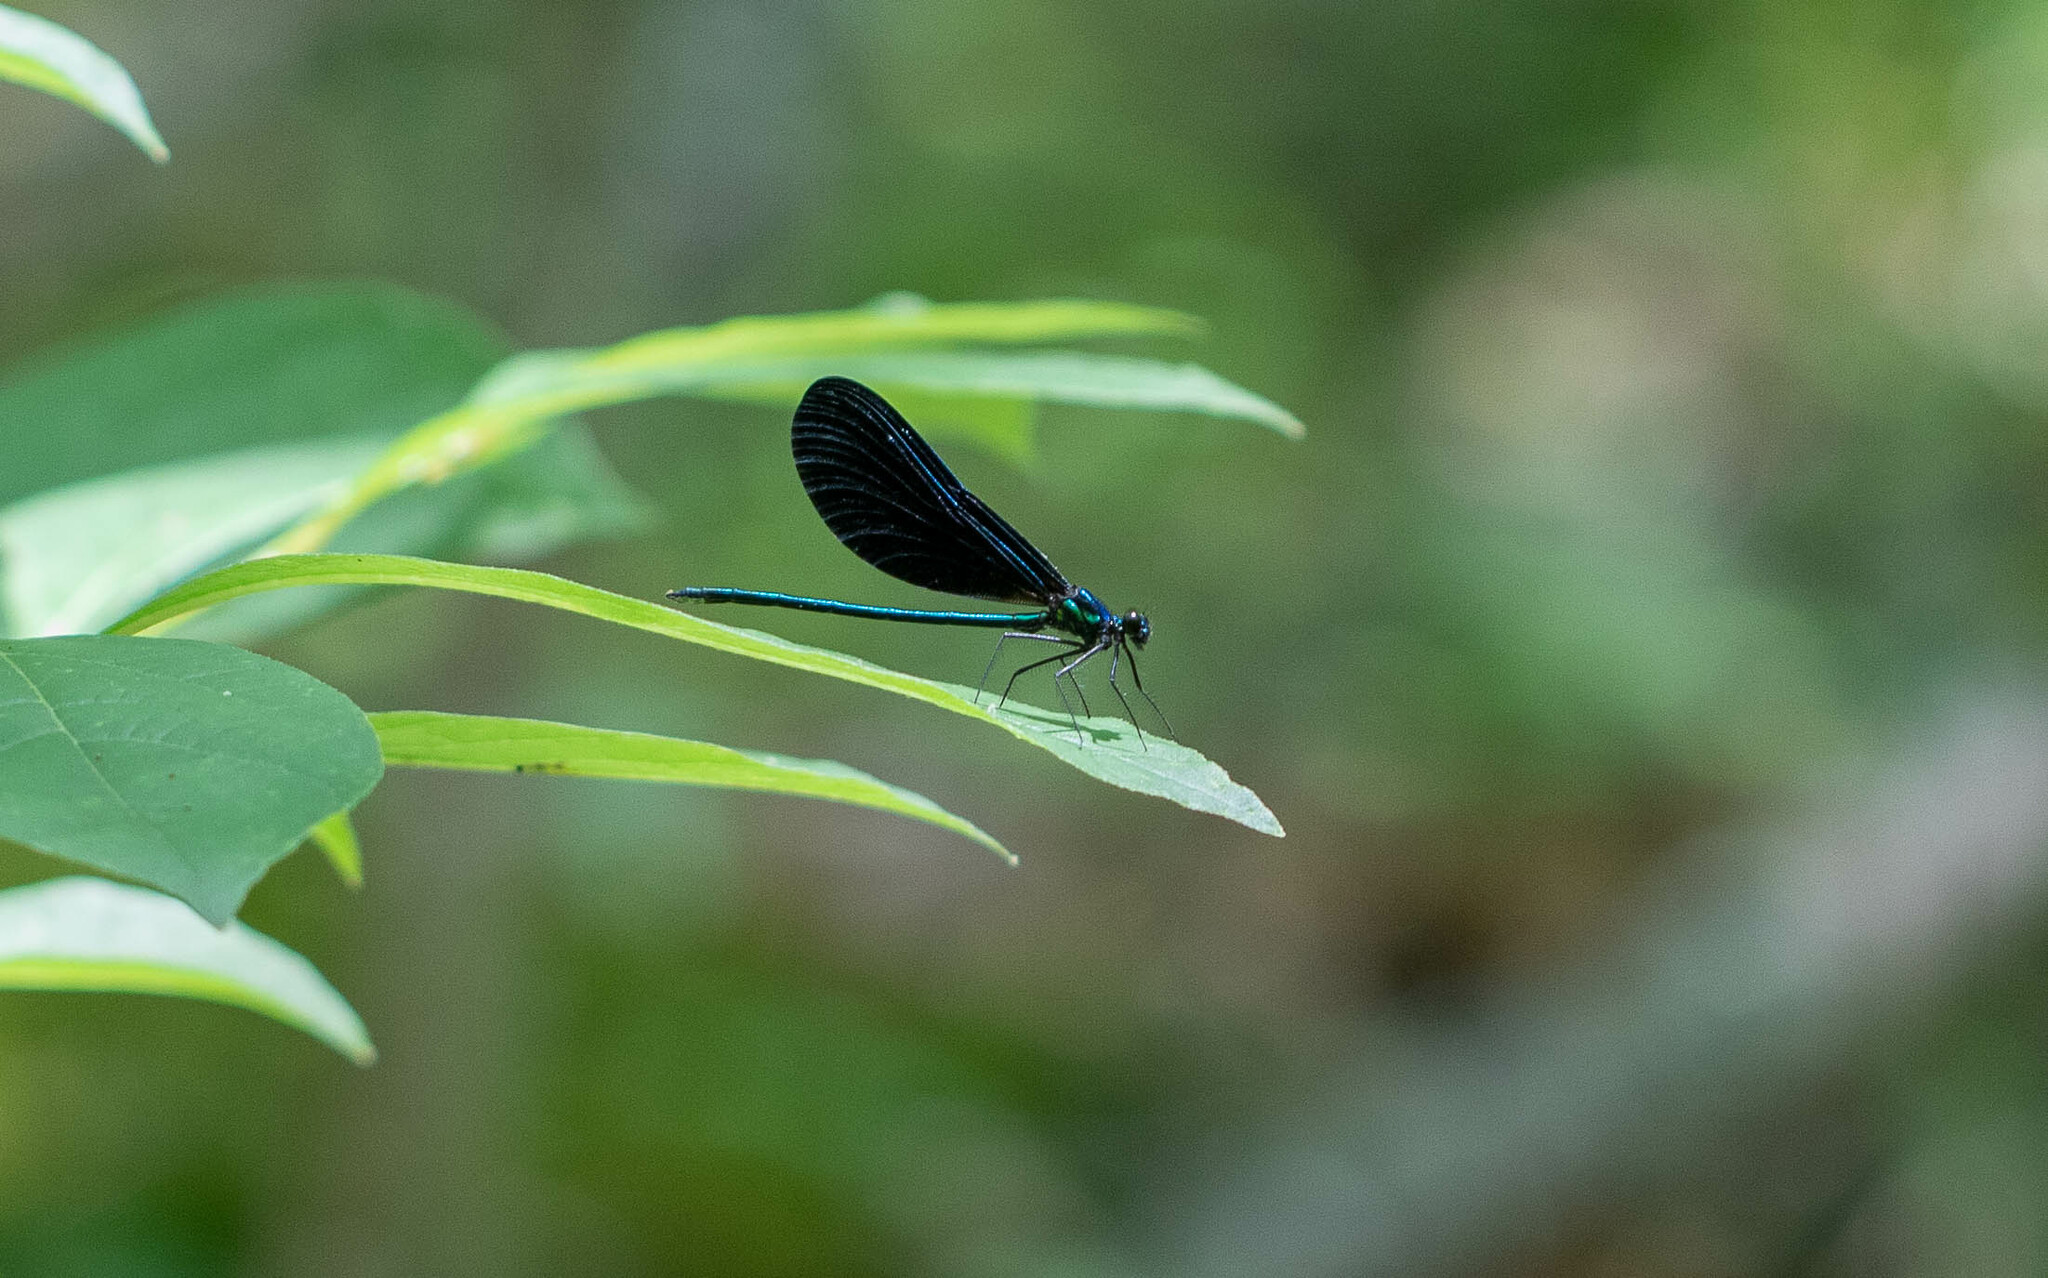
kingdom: Animalia
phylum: Arthropoda
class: Insecta
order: Odonata
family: Calopterygidae
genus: Calopteryx
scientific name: Calopteryx maculata
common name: Ebony jewelwing
